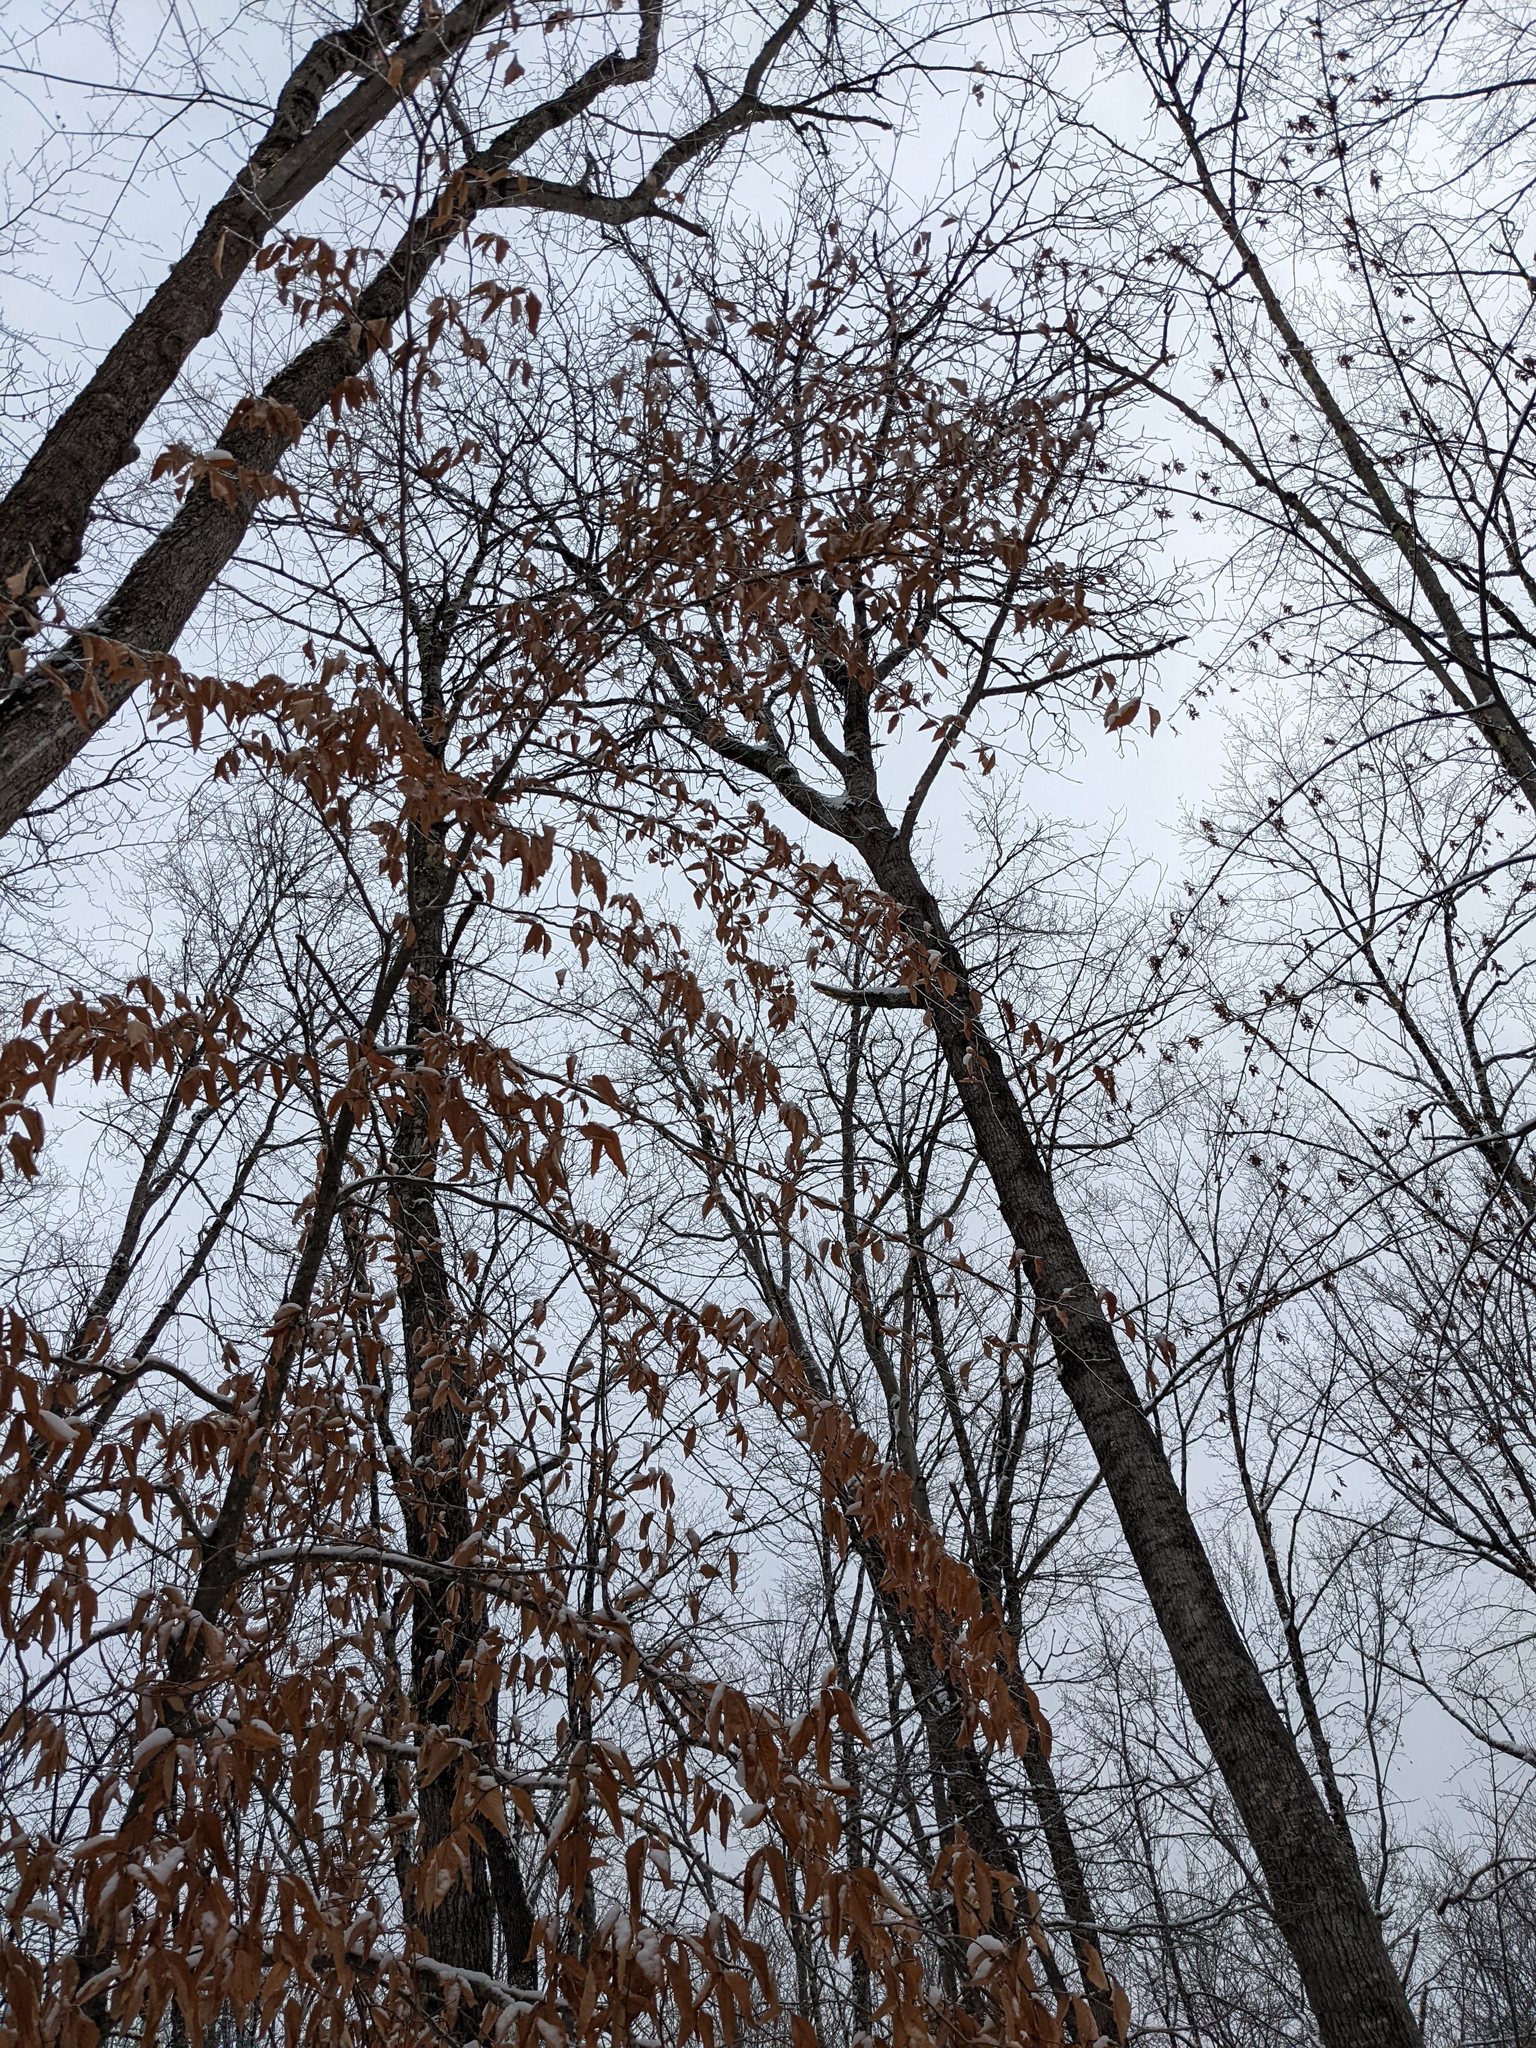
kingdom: Plantae
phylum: Tracheophyta
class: Magnoliopsida
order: Fagales
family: Fagaceae
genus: Fagus
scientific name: Fagus grandifolia
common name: American beech
